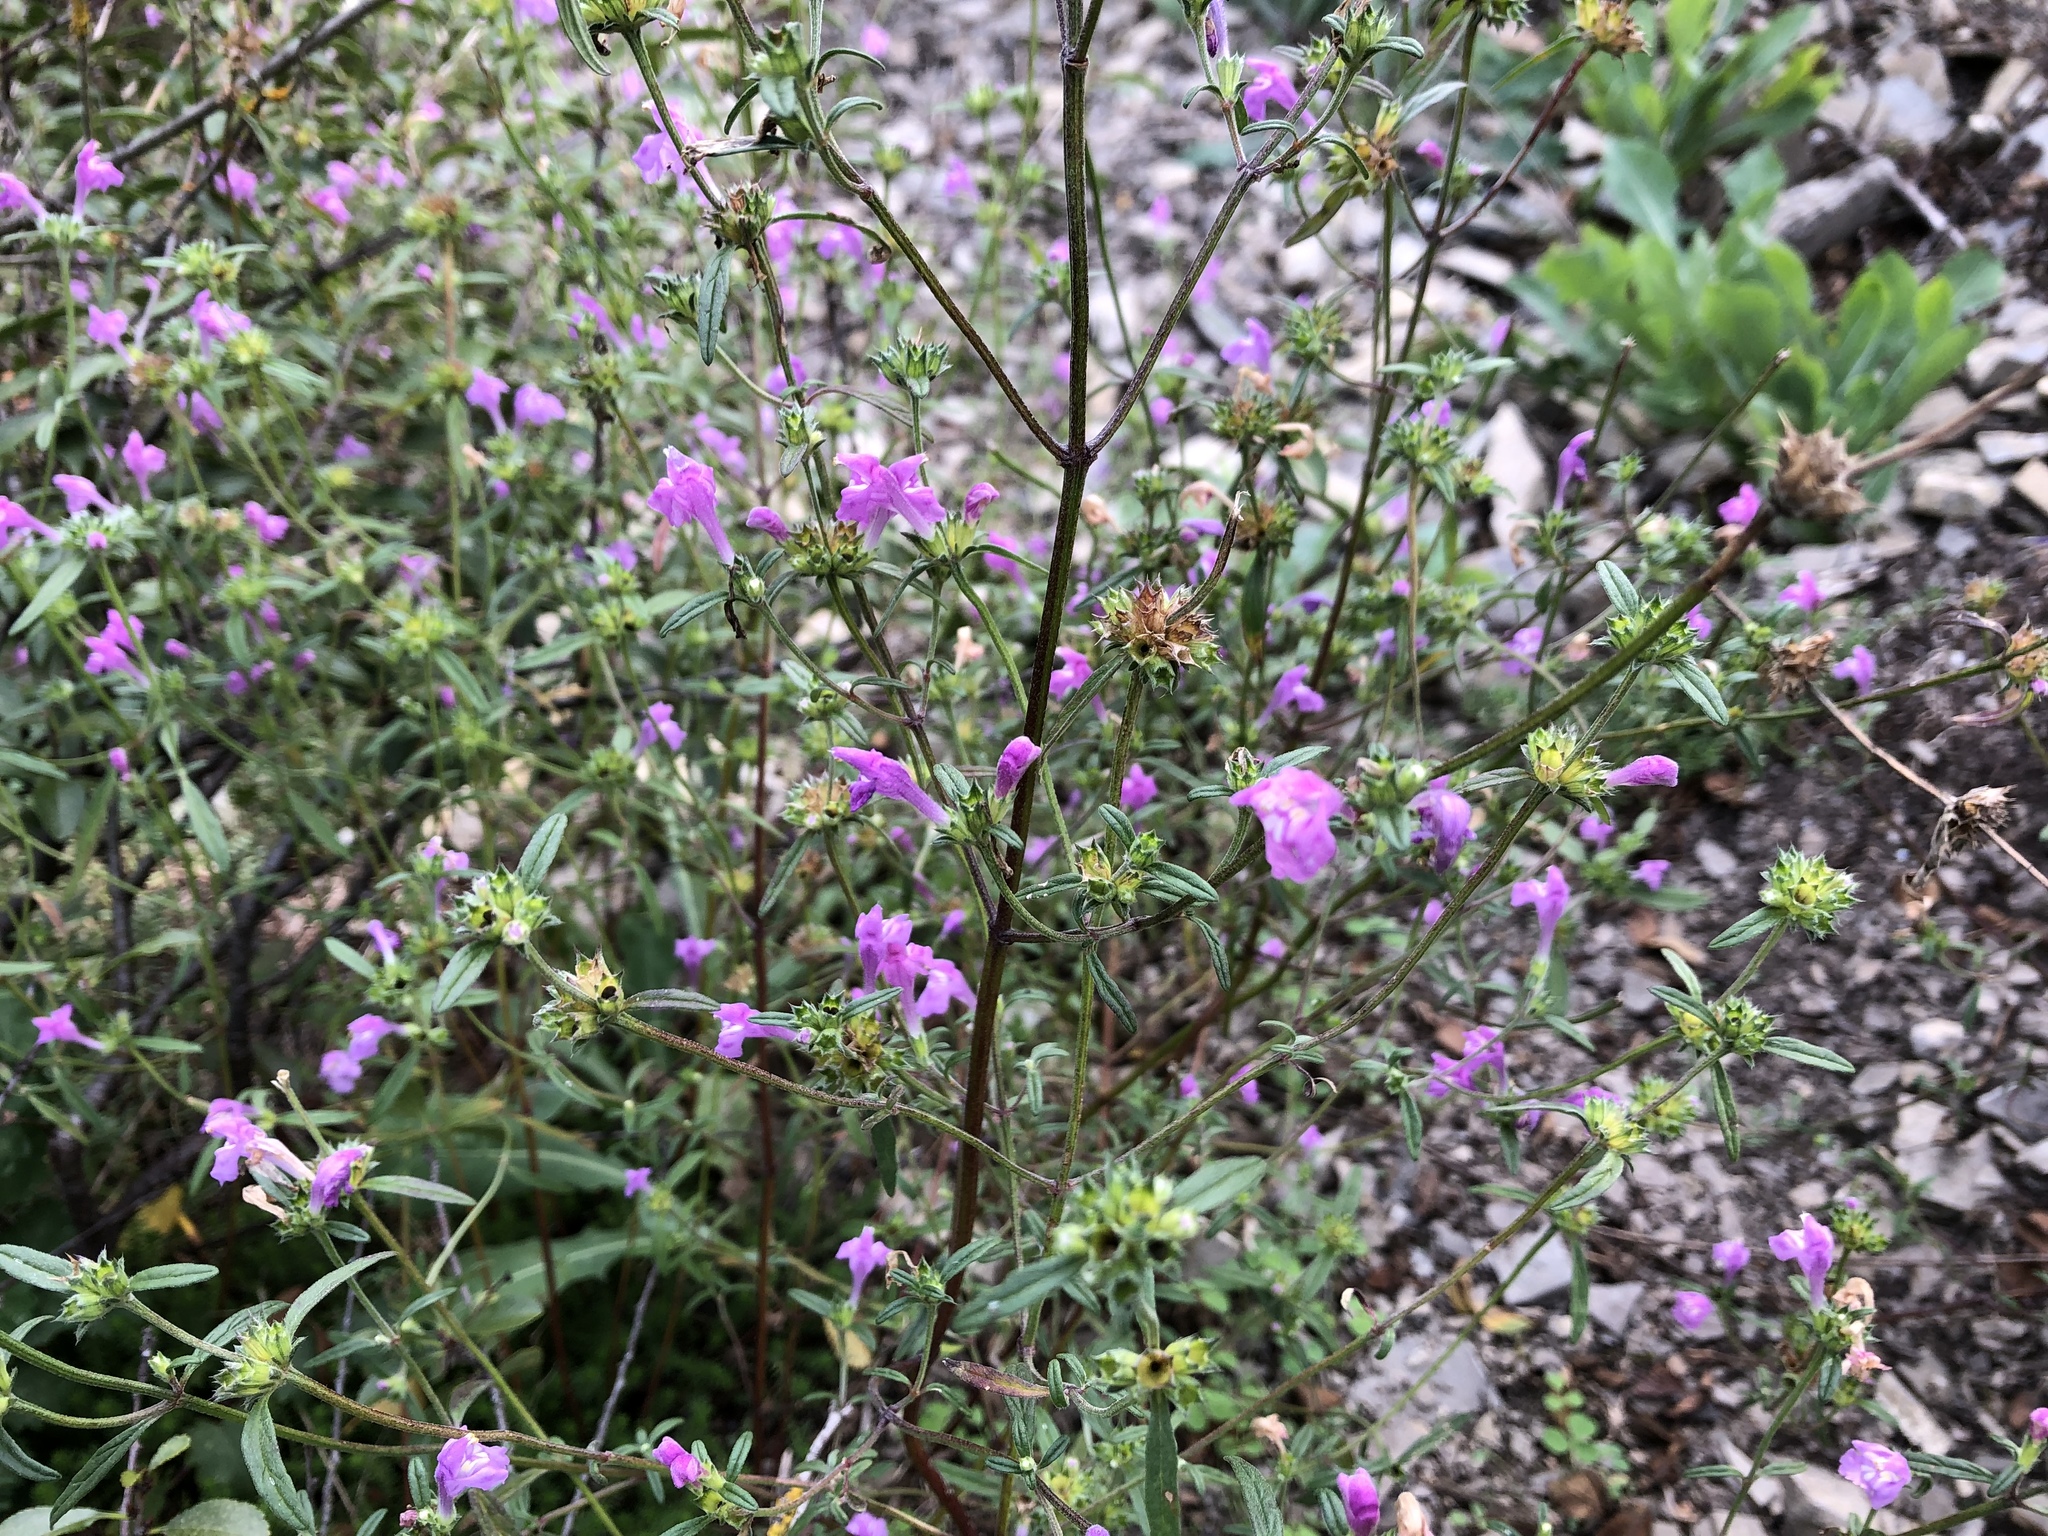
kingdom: Plantae
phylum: Tracheophyta
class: Magnoliopsida
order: Lamiales
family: Lamiaceae
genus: Galeopsis
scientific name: Galeopsis angustifolia
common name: Red hemp-nettle
